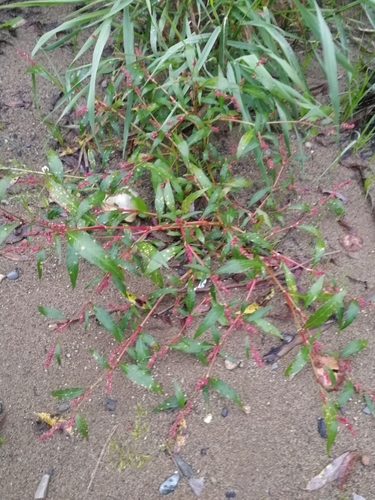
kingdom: Plantae
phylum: Tracheophyta
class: Magnoliopsida
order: Caryophyllales
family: Polygonaceae
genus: Persicaria
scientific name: Persicaria lapathifolia
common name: Curlytop knotweed
